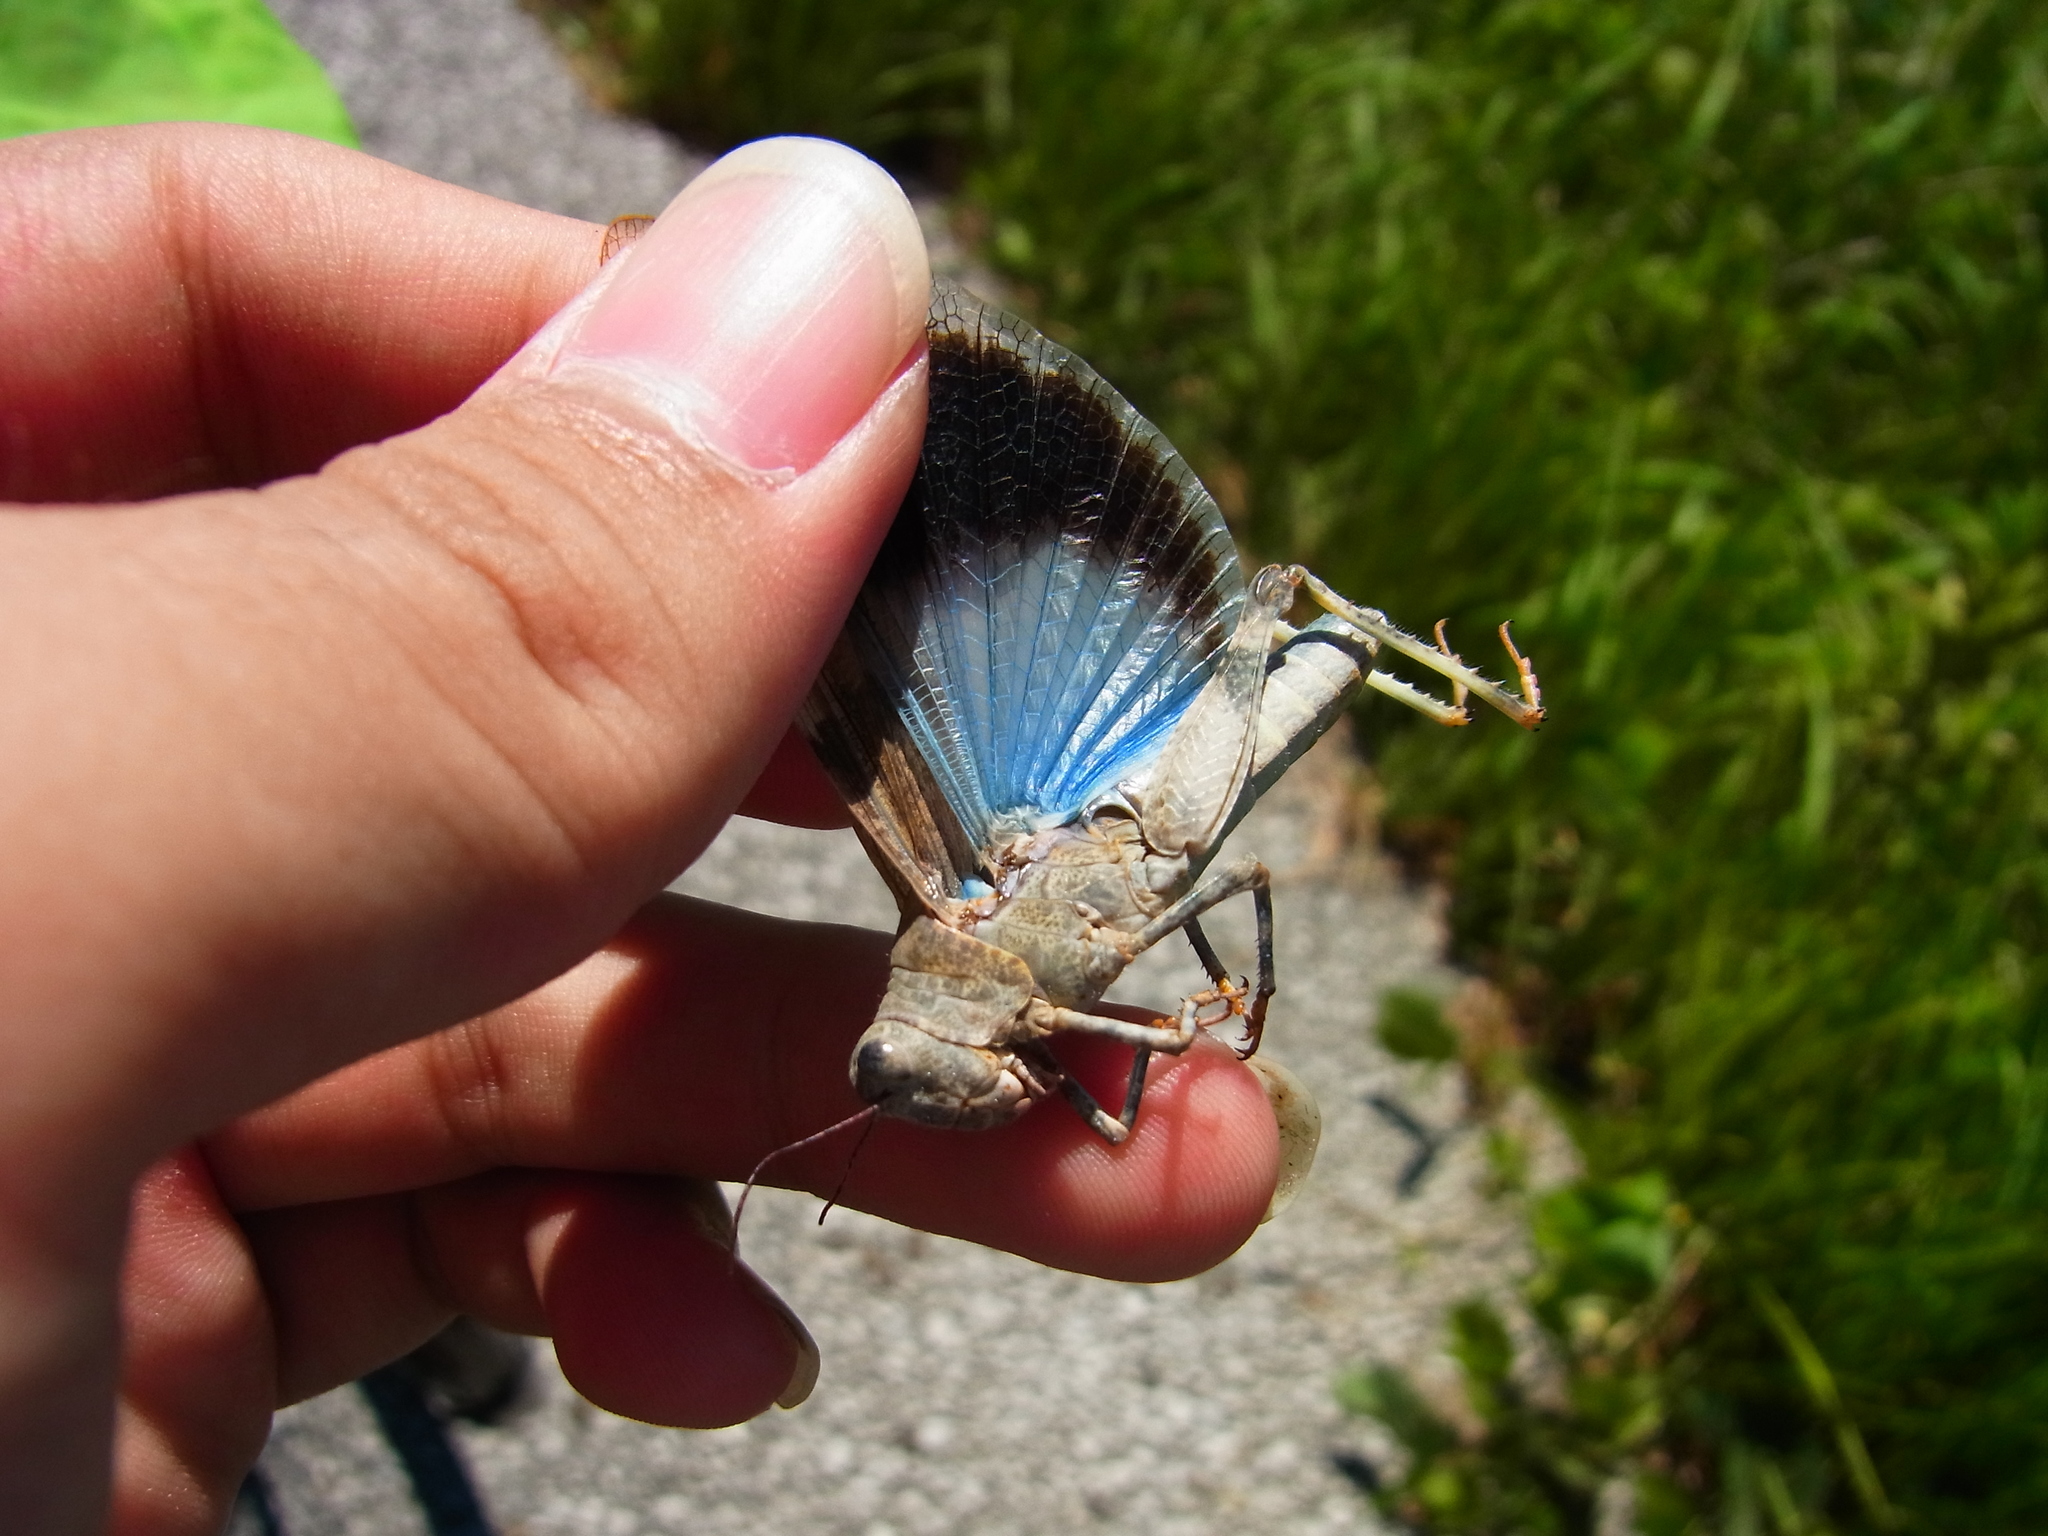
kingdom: Animalia
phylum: Arthropoda
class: Insecta
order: Orthoptera
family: Acrididae
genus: Eusphingonotus
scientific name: Eusphingonotus japonicus
